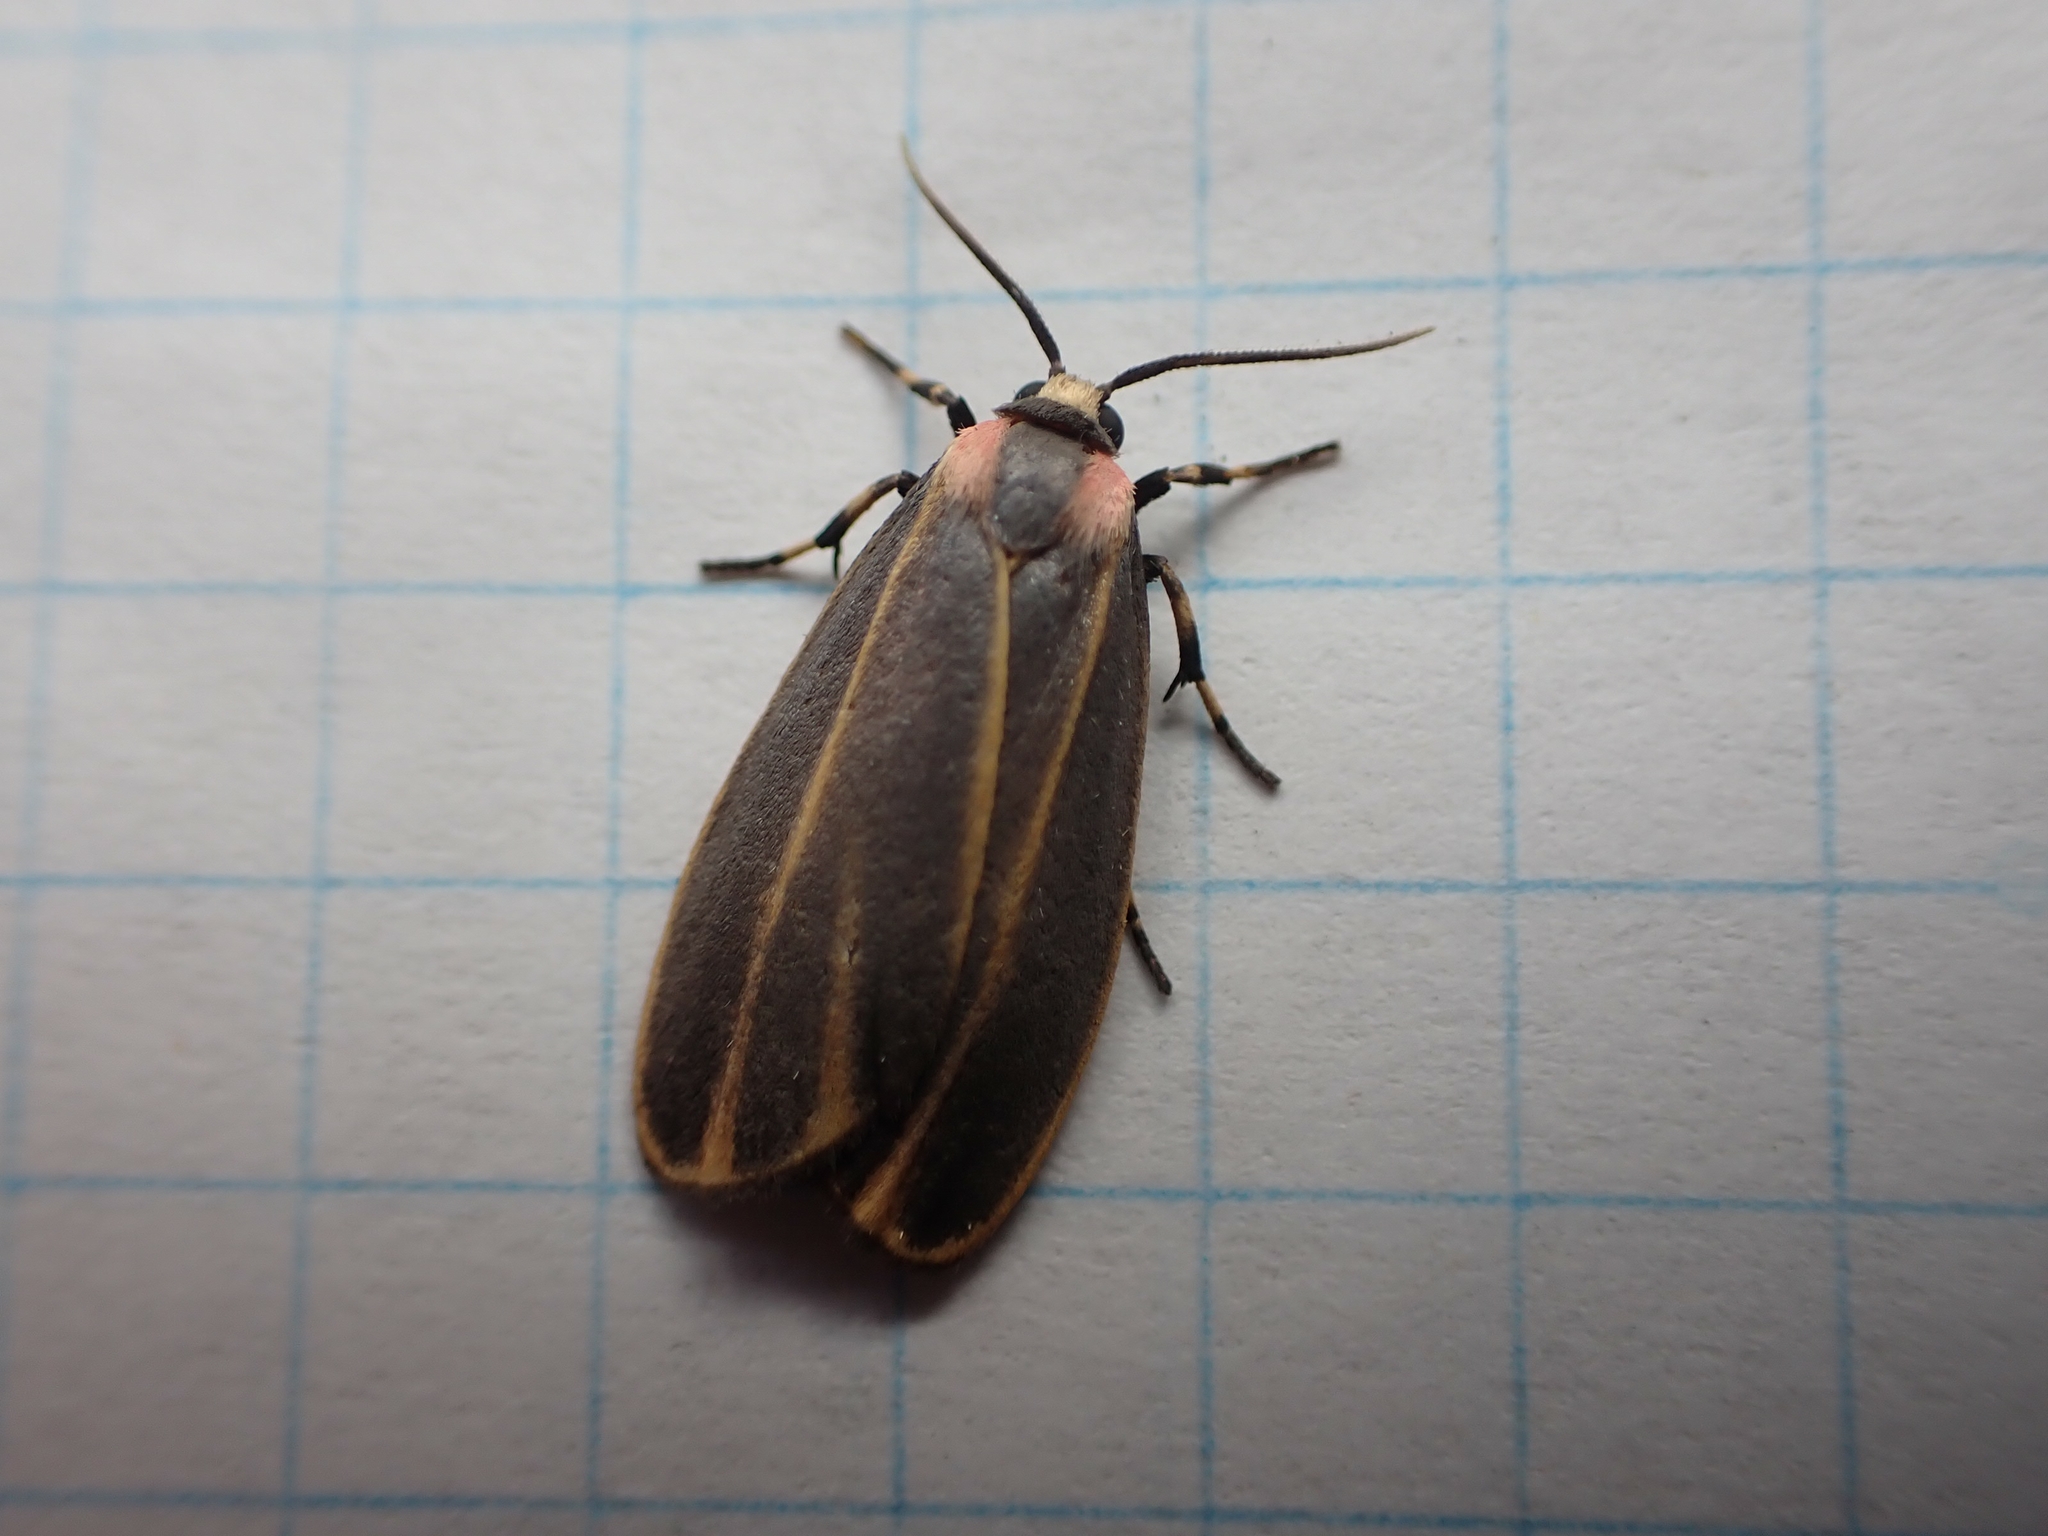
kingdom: Animalia
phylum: Arthropoda
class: Insecta
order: Lepidoptera
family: Erebidae
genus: Hypoprepia
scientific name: Hypoprepia fucosa
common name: Painted lichen moth
